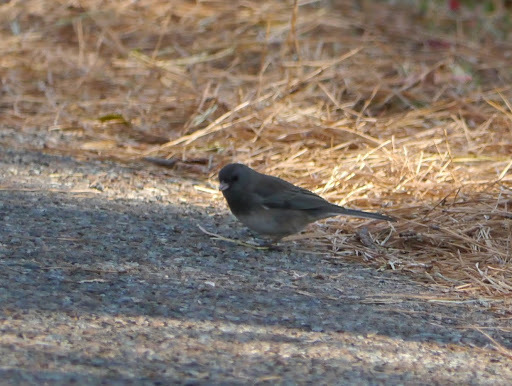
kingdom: Animalia
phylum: Chordata
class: Aves
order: Passeriformes
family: Passerellidae
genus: Junco
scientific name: Junco hyemalis
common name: Dark-eyed junco
